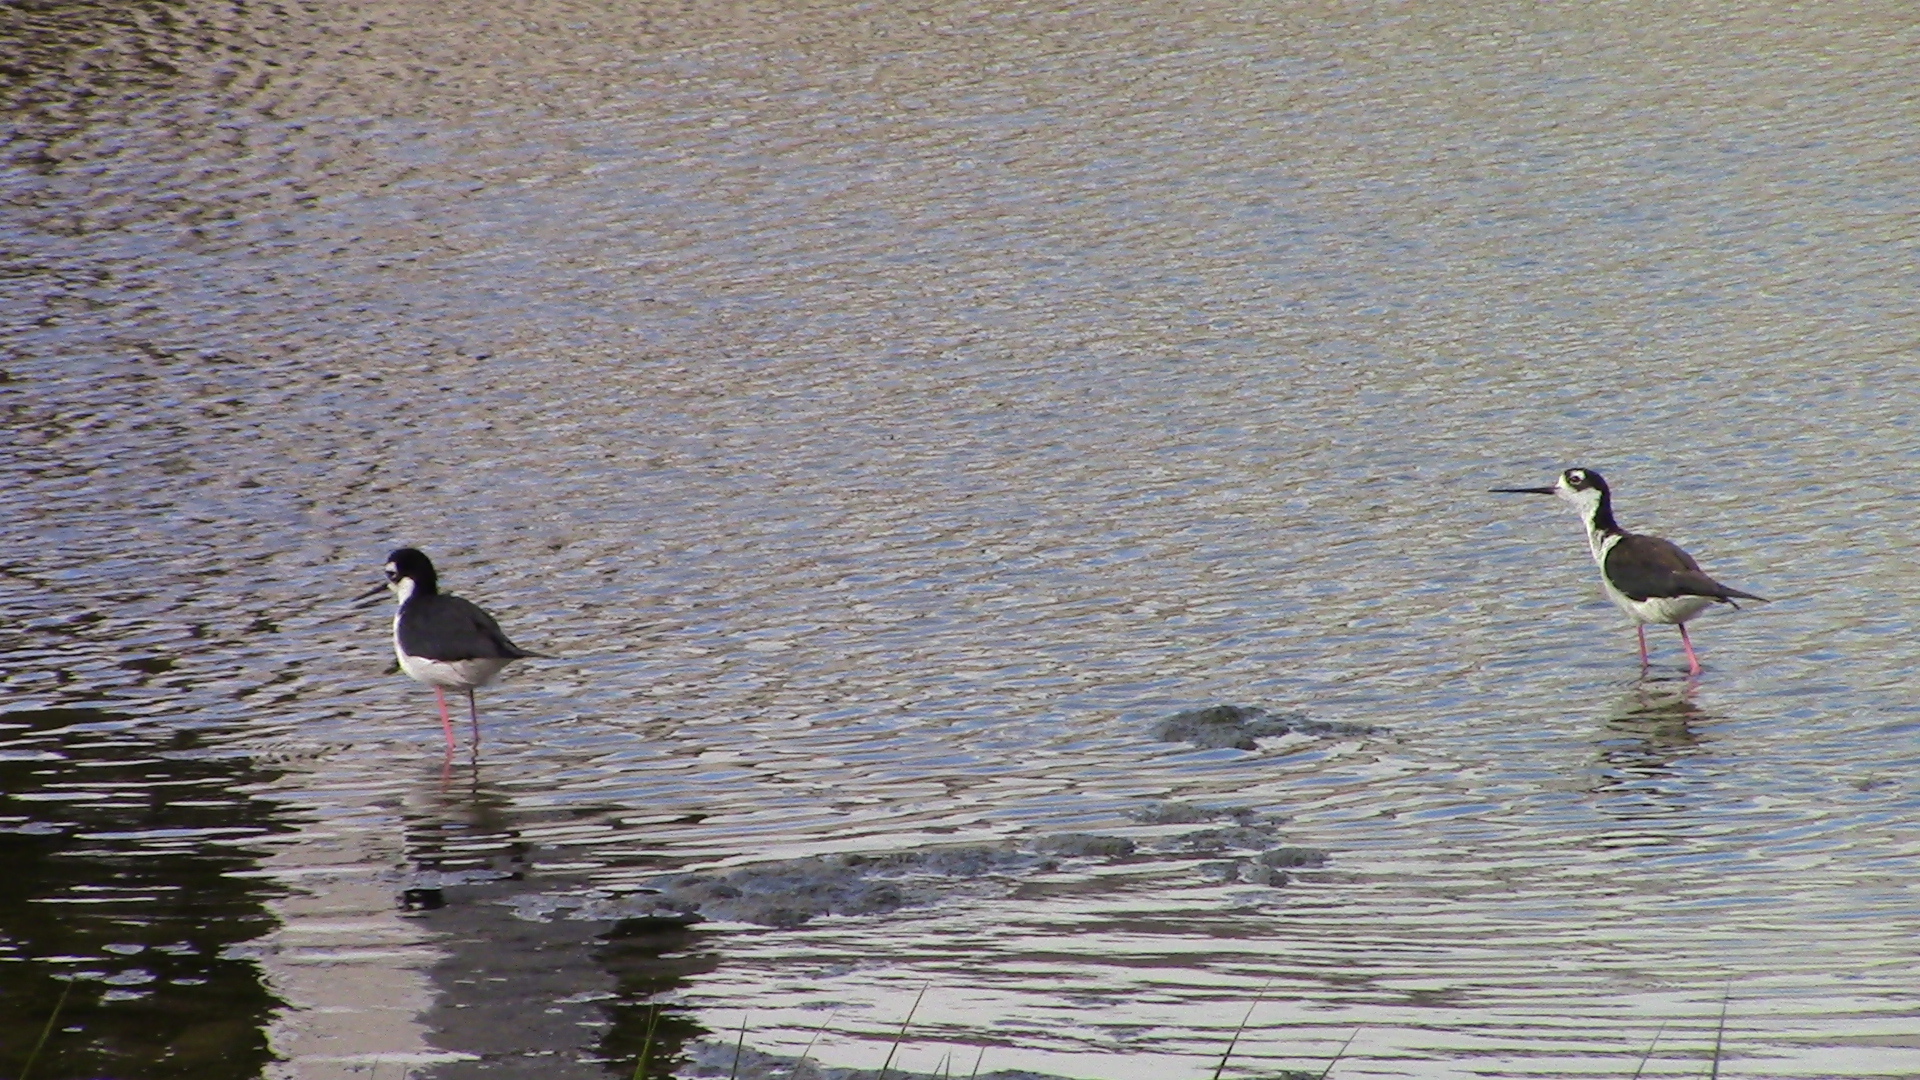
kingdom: Animalia
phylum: Chordata
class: Aves
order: Charadriiformes
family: Recurvirostridae
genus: Himantopus
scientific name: Himantopus mexicanus
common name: Black-necked stilt
